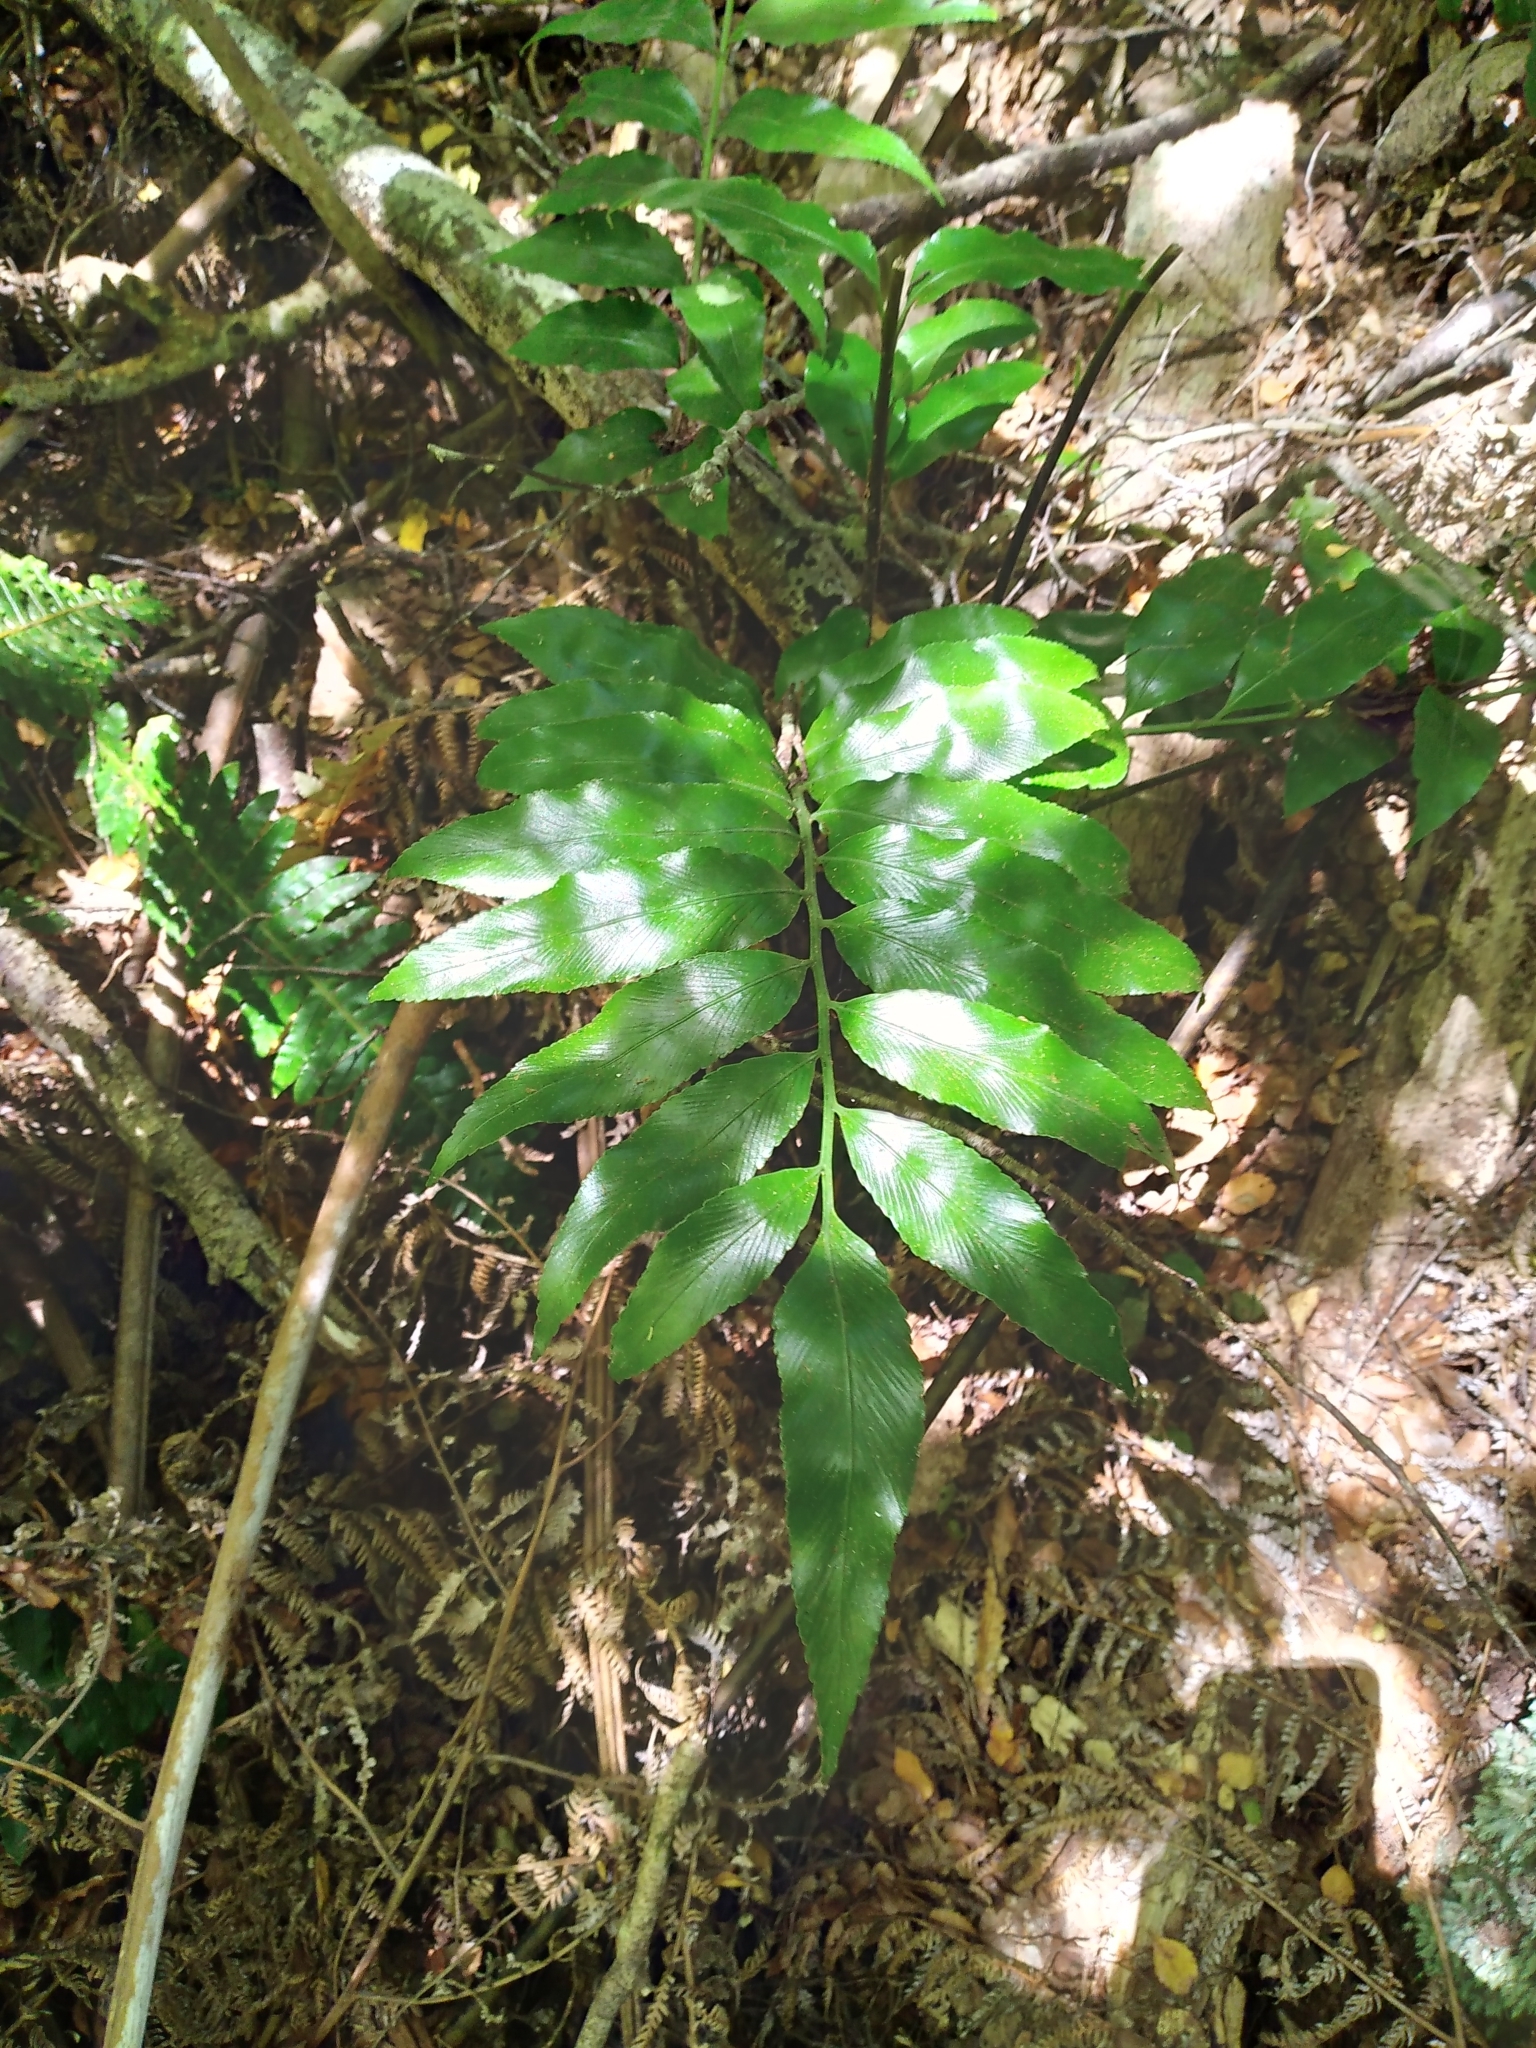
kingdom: Plantae
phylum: Tracheophyta
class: Polypodiopsida
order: Polypodiales
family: Aspleniaceae
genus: Asplenium
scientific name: Asplenium oblongifolium
